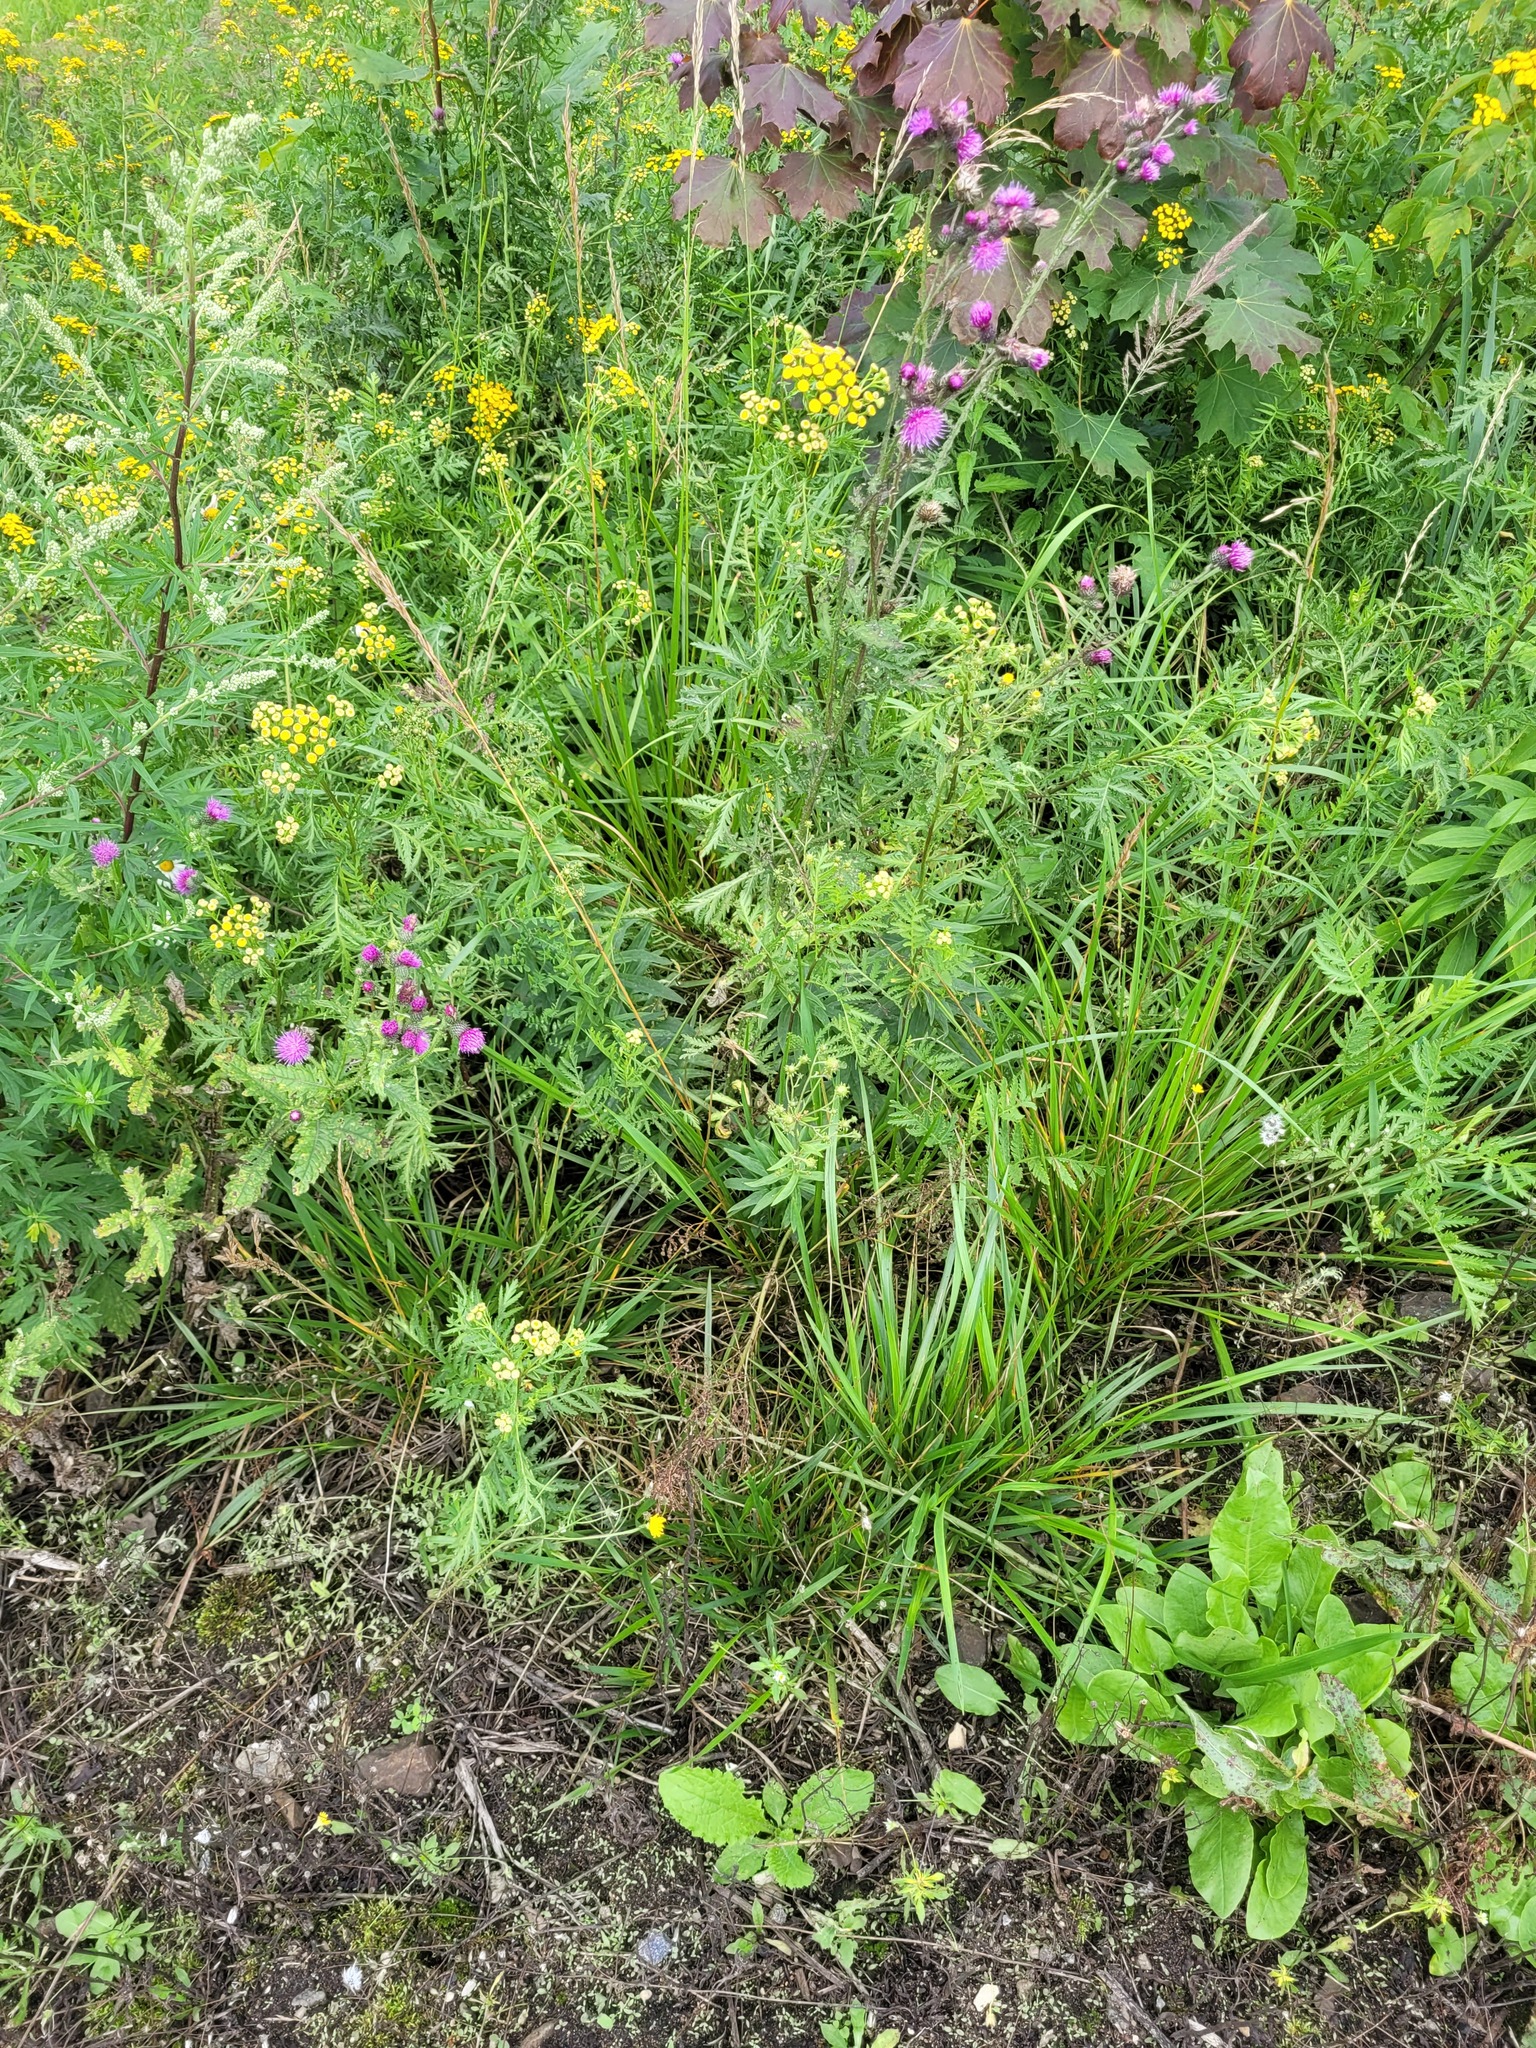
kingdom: Plantae
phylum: Tracheophyta
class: Liliopsida
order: Poales
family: Poaceae
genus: Lolium
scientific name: Lolium arundinaceum
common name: Reed fescue
